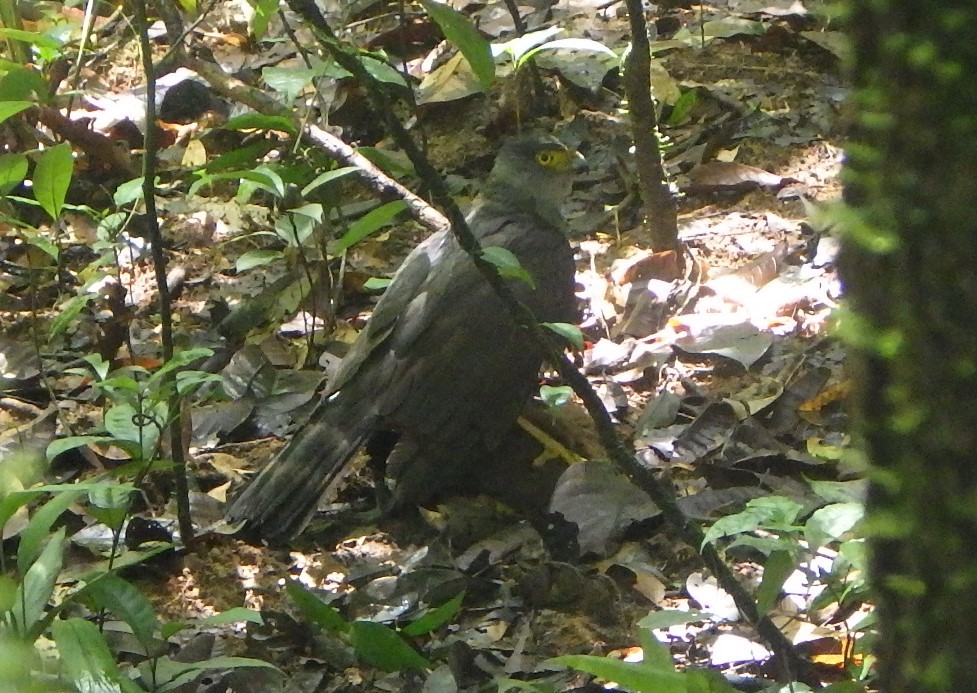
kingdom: Animalia
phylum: Chordata
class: Aves
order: Accipitriformes
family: Accipitridae
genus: Accipiter
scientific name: Accipiter bicolor
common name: Bicolored hawk
